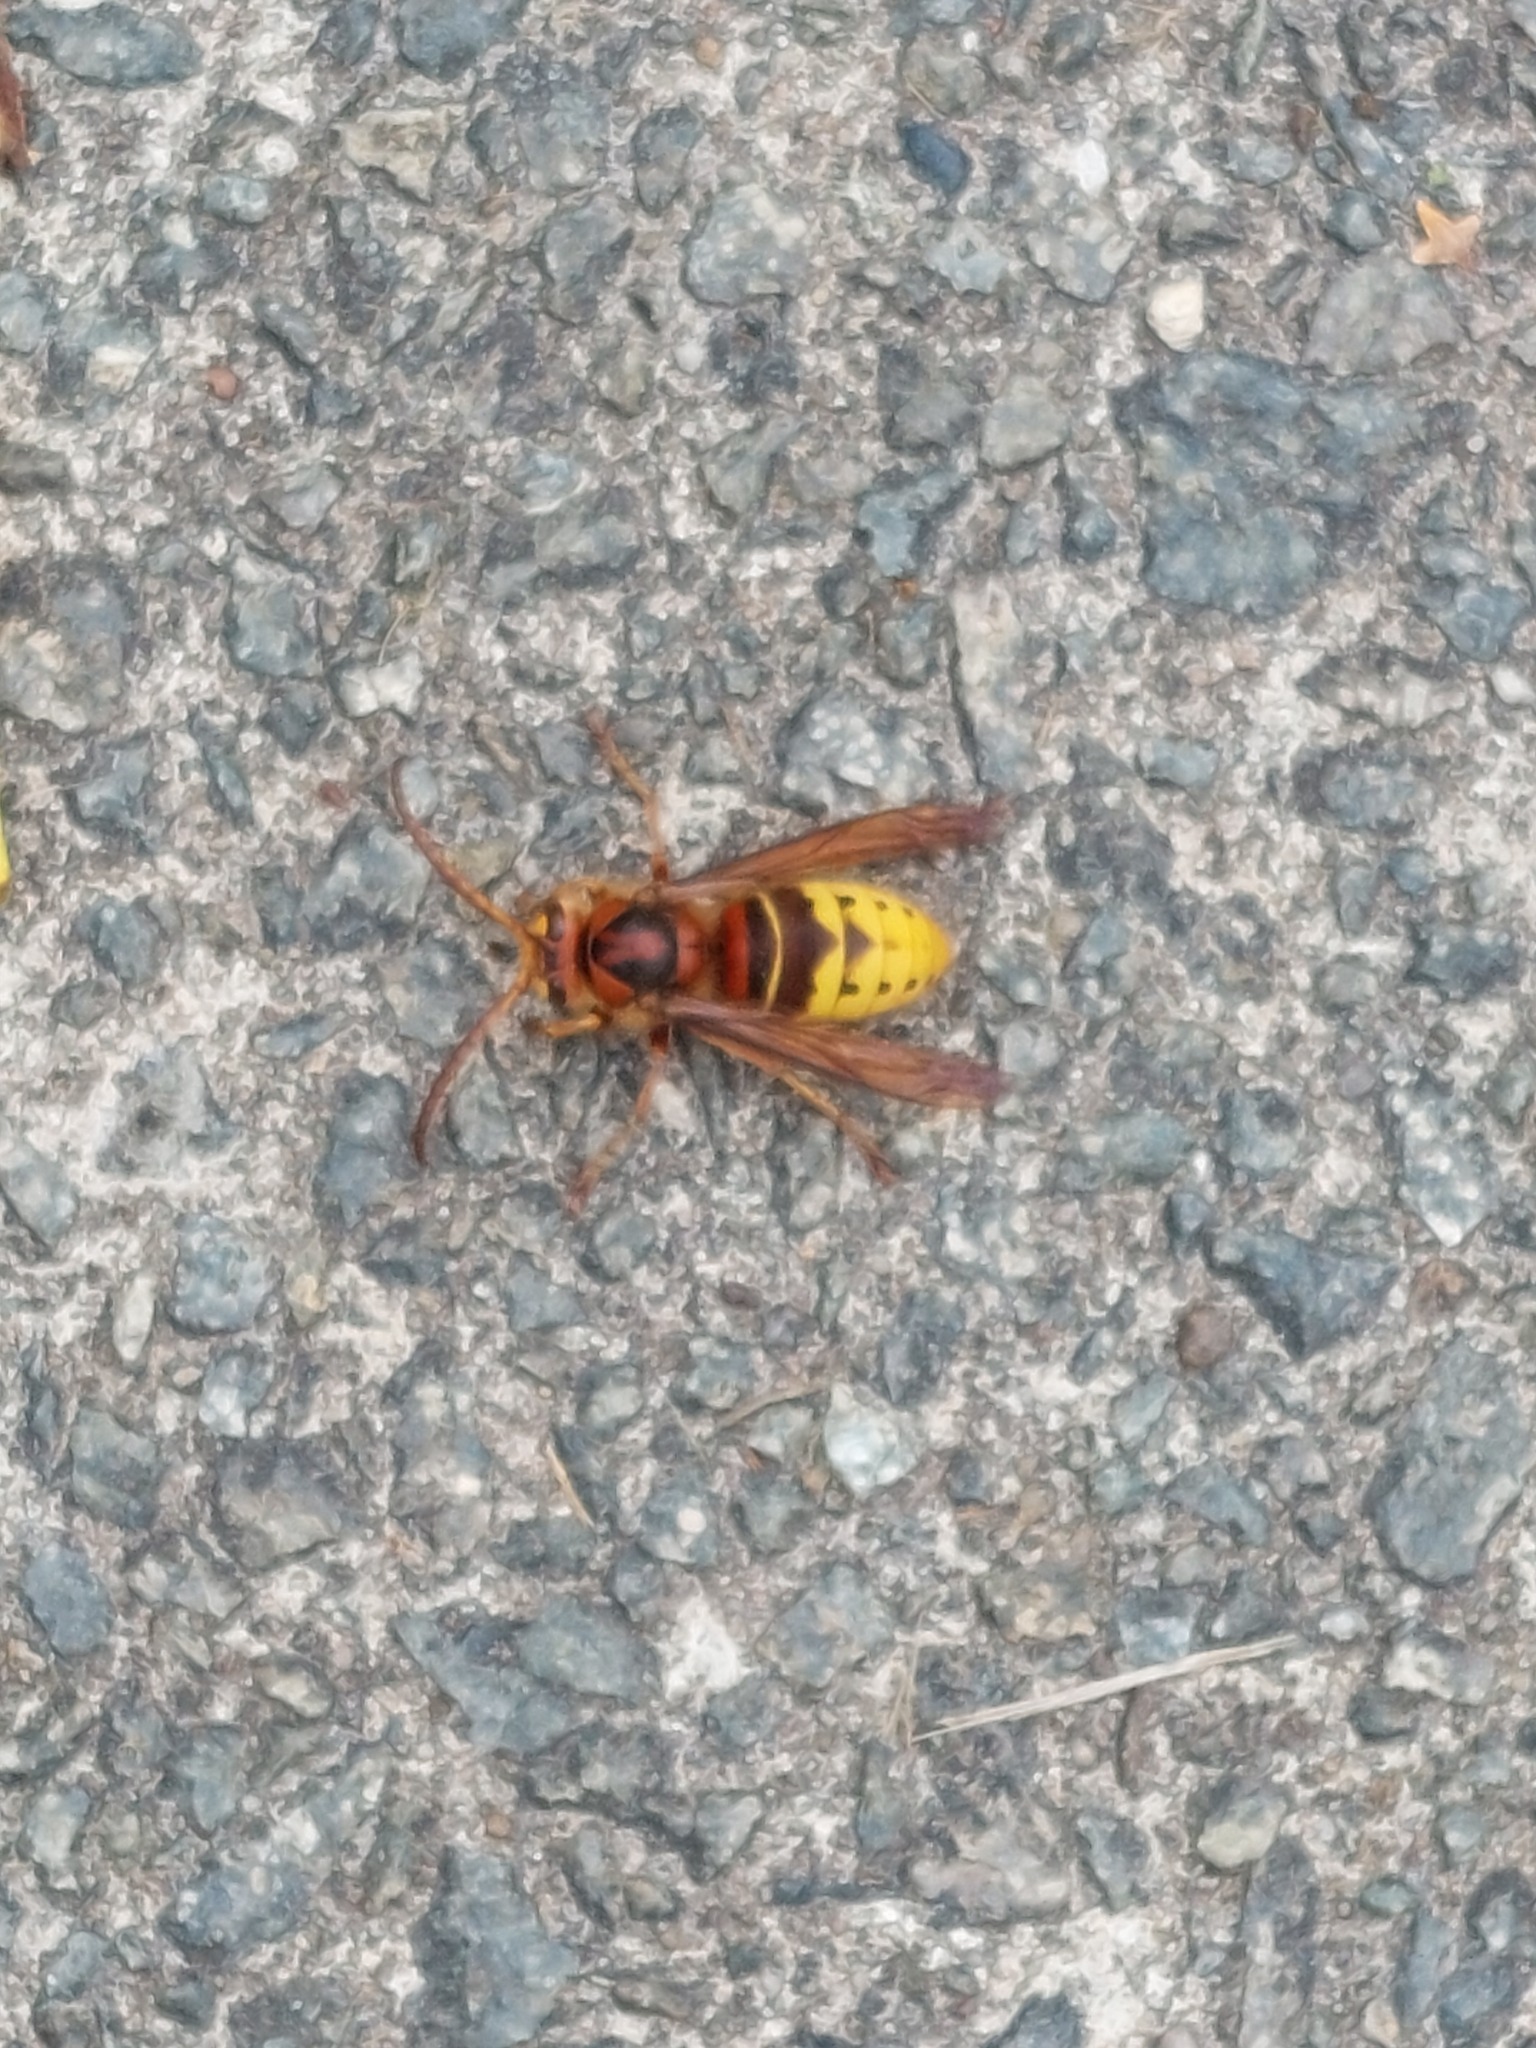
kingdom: Animalia
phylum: Arthropoda
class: Insecta
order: Hymenoptera
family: Vespidae
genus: Vespa
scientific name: Vespa crabro
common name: Hornet
